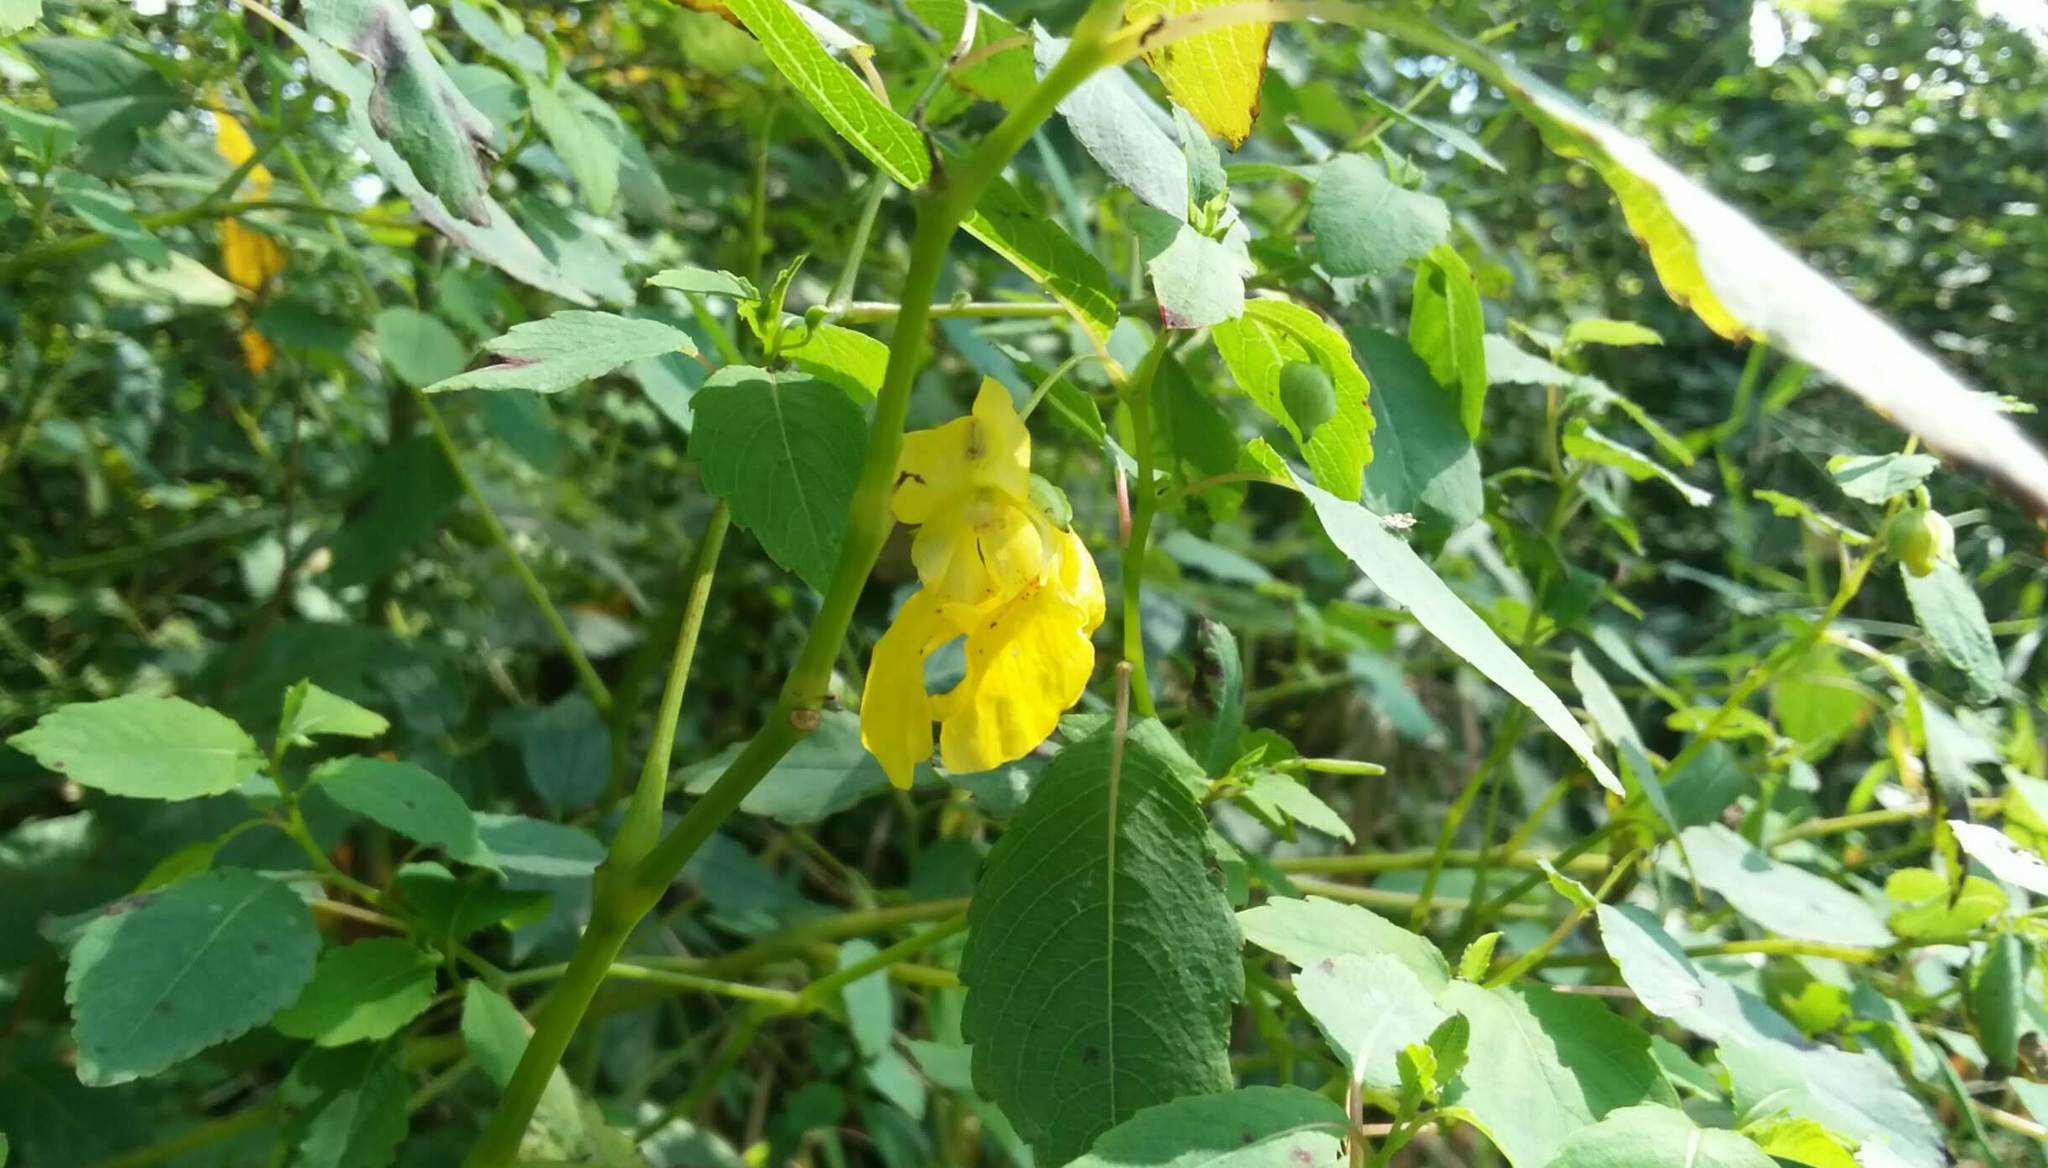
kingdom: Plantae
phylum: Tracheophyta
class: Magnoliopsida
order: Ericales
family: Balsaminaceae
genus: Impatiens
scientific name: Impatiens pallida
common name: Pale snapweed
